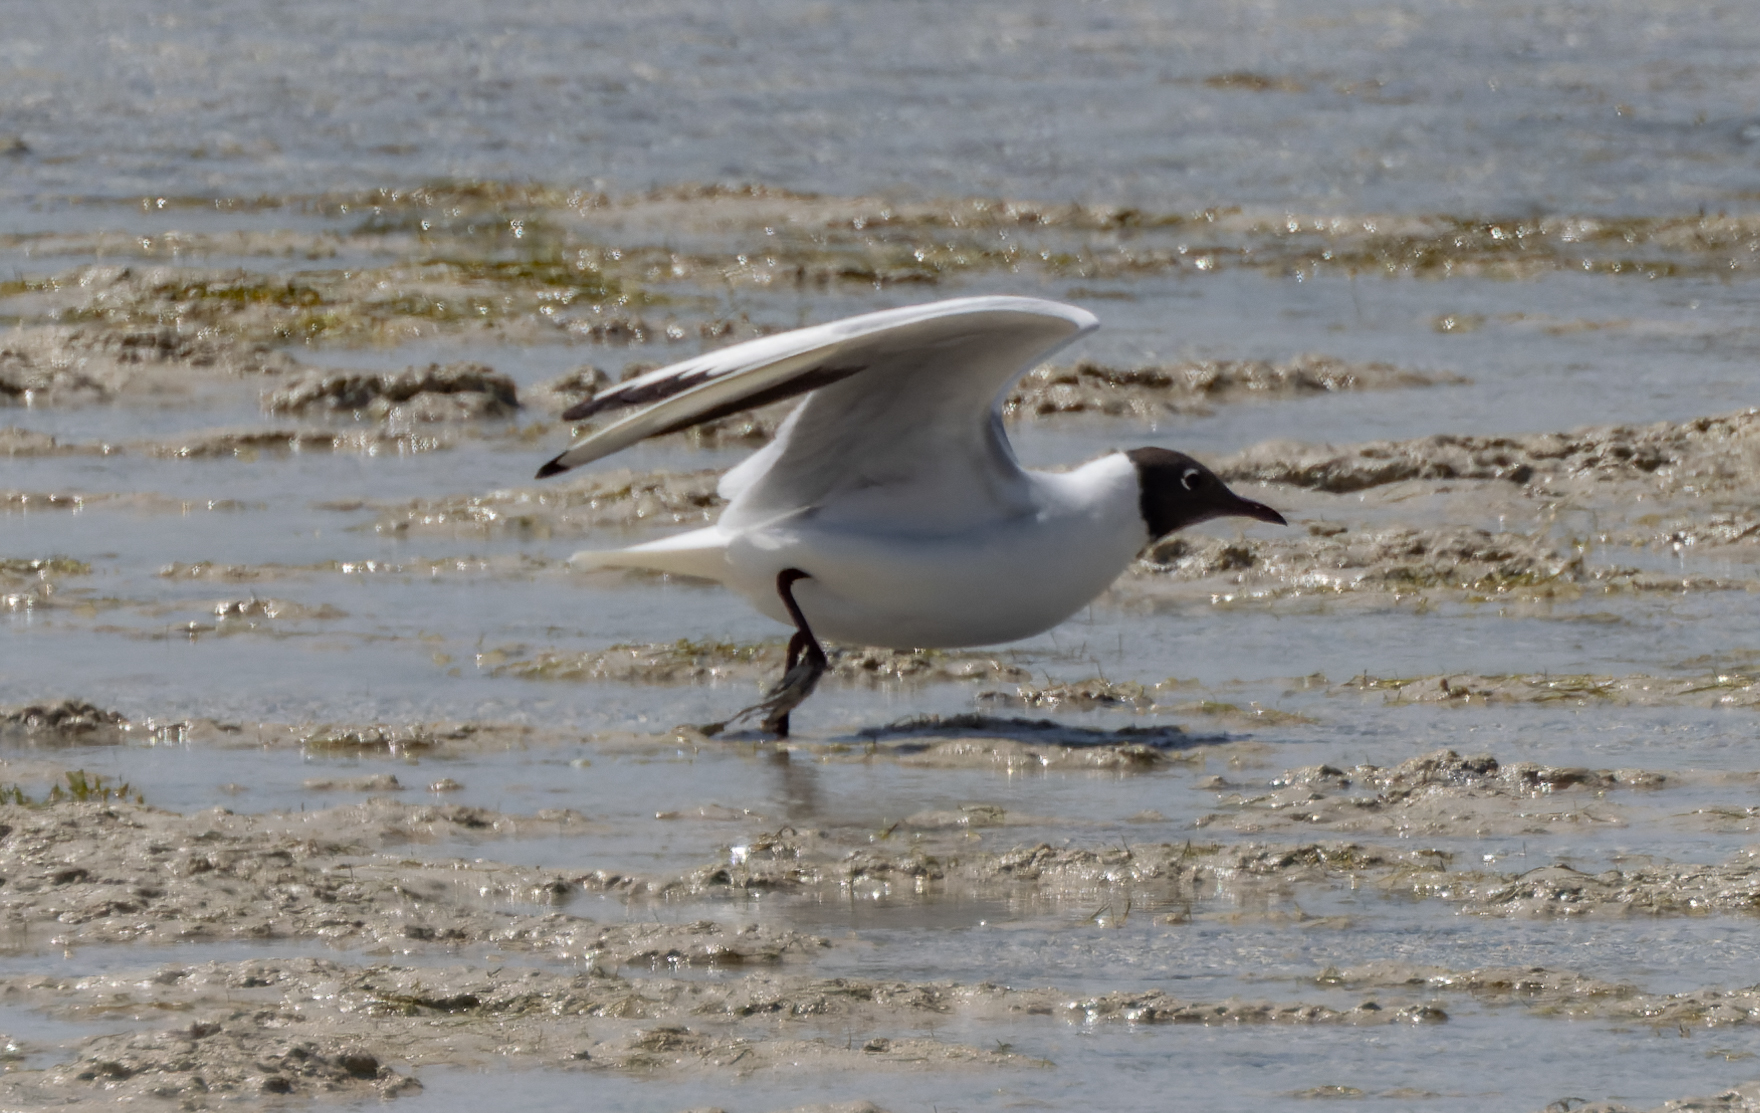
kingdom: Animalia
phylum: Chordata
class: Aves
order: Charadriiformes
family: Laridae
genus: Chroicocephalus
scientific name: Chroicocephalus ridibundus
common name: Black-headed gull
